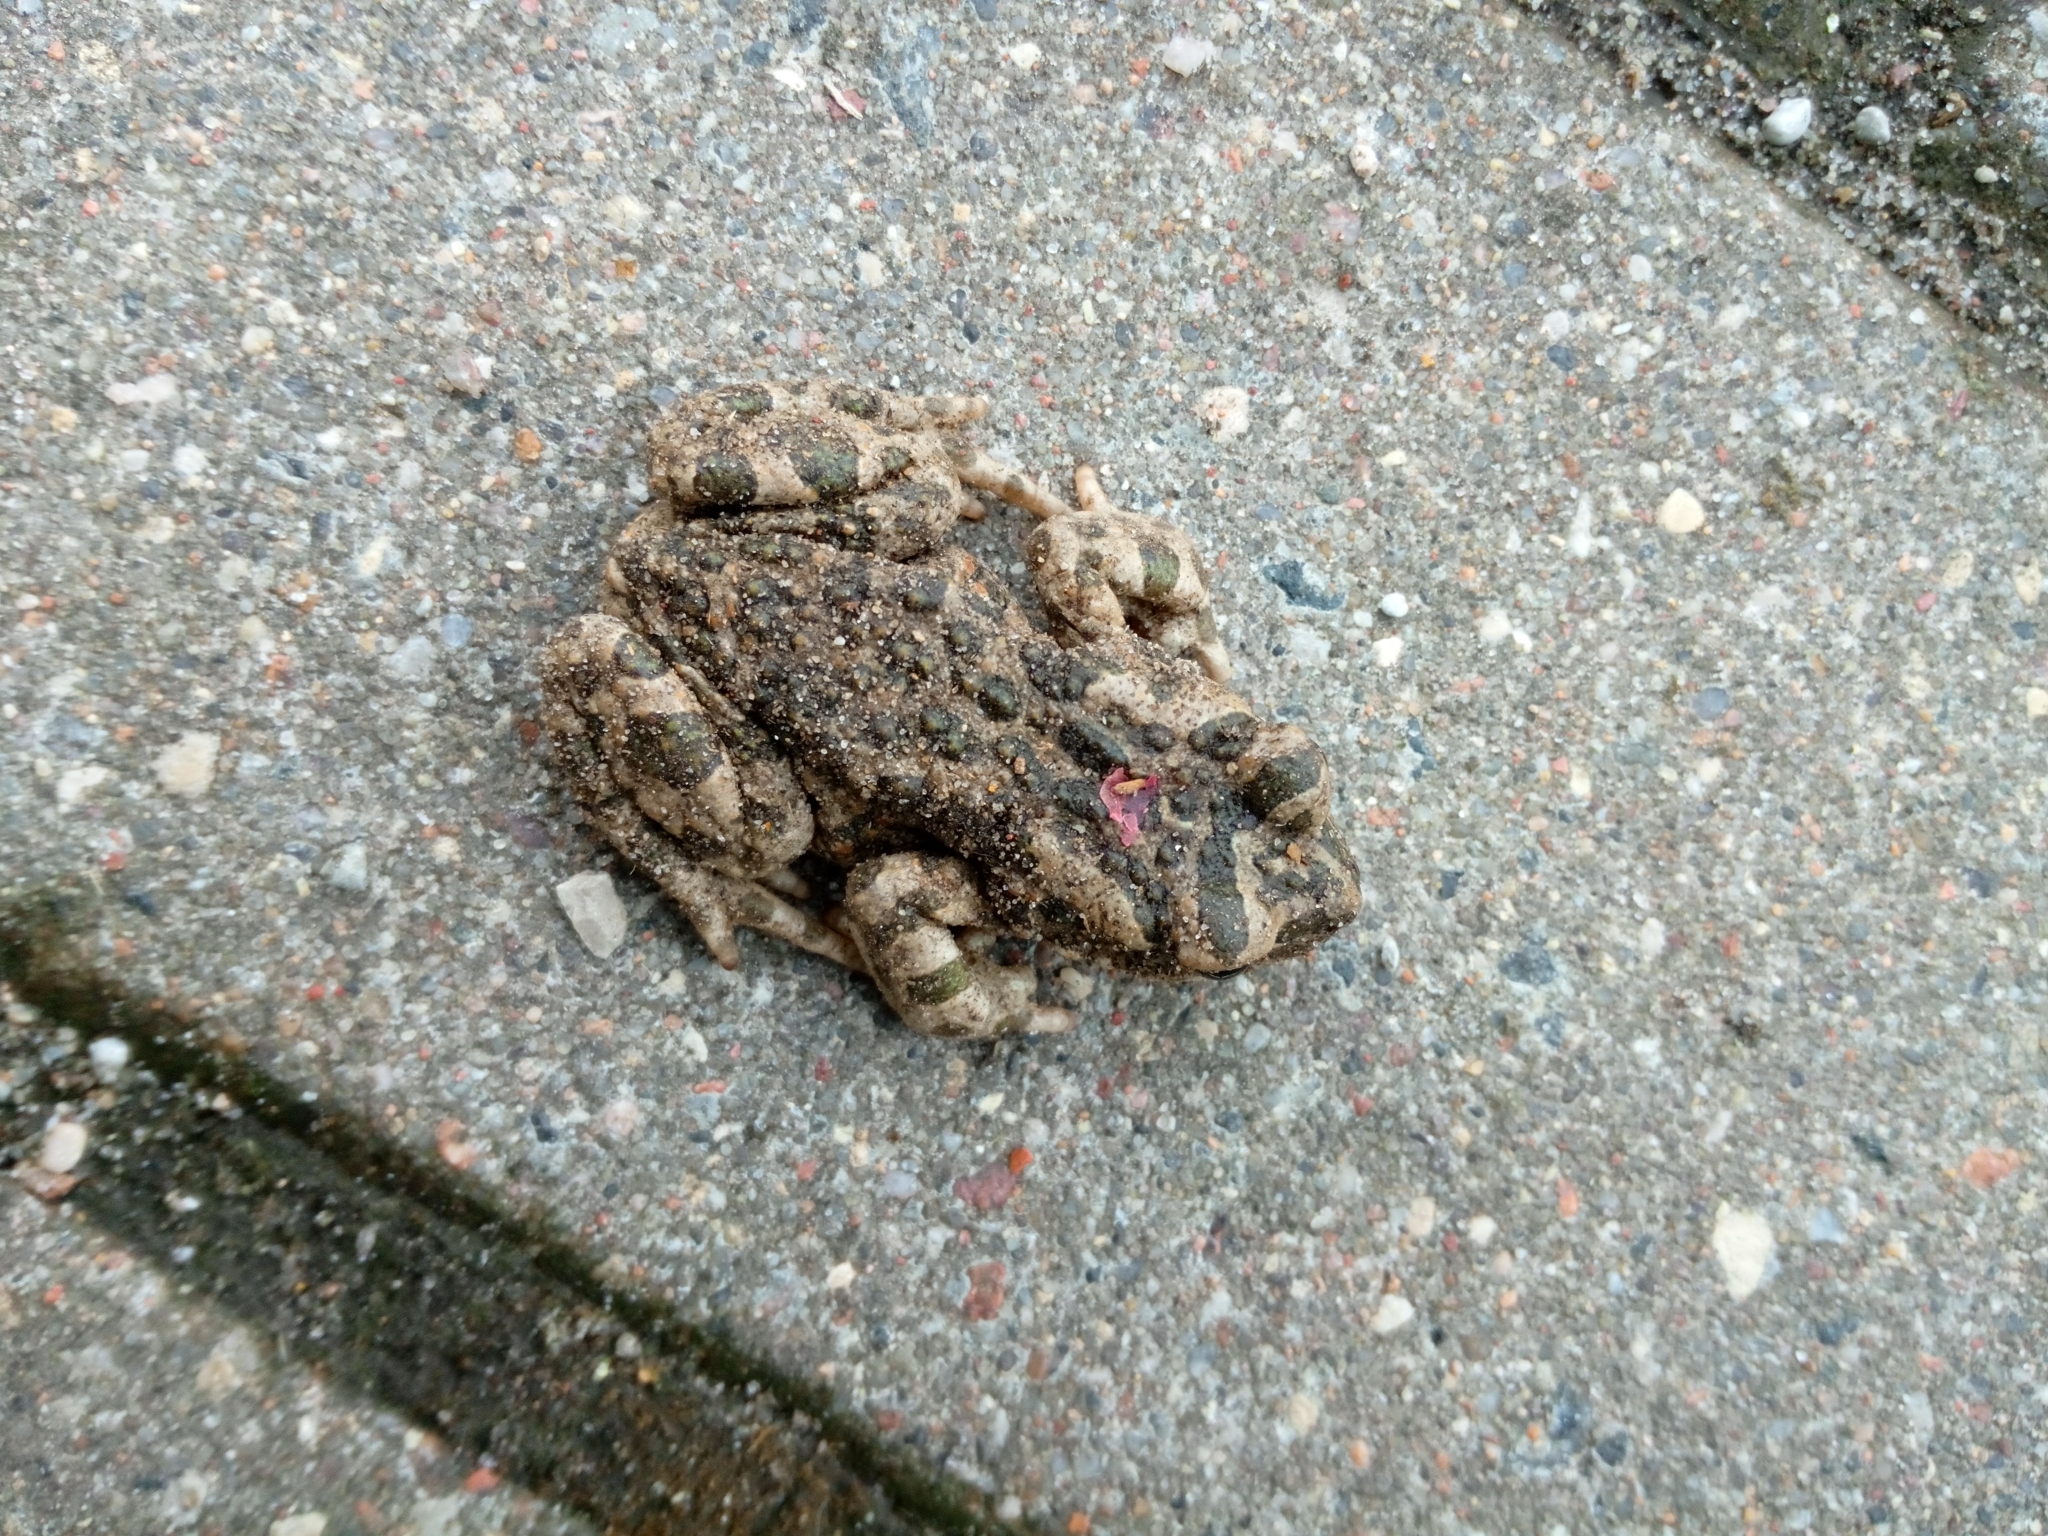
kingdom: Animalia
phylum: Chordata
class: Amphibia
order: Anura
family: Bufonidae
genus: Bufotes
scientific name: Bufotes viridis
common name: European green toad
